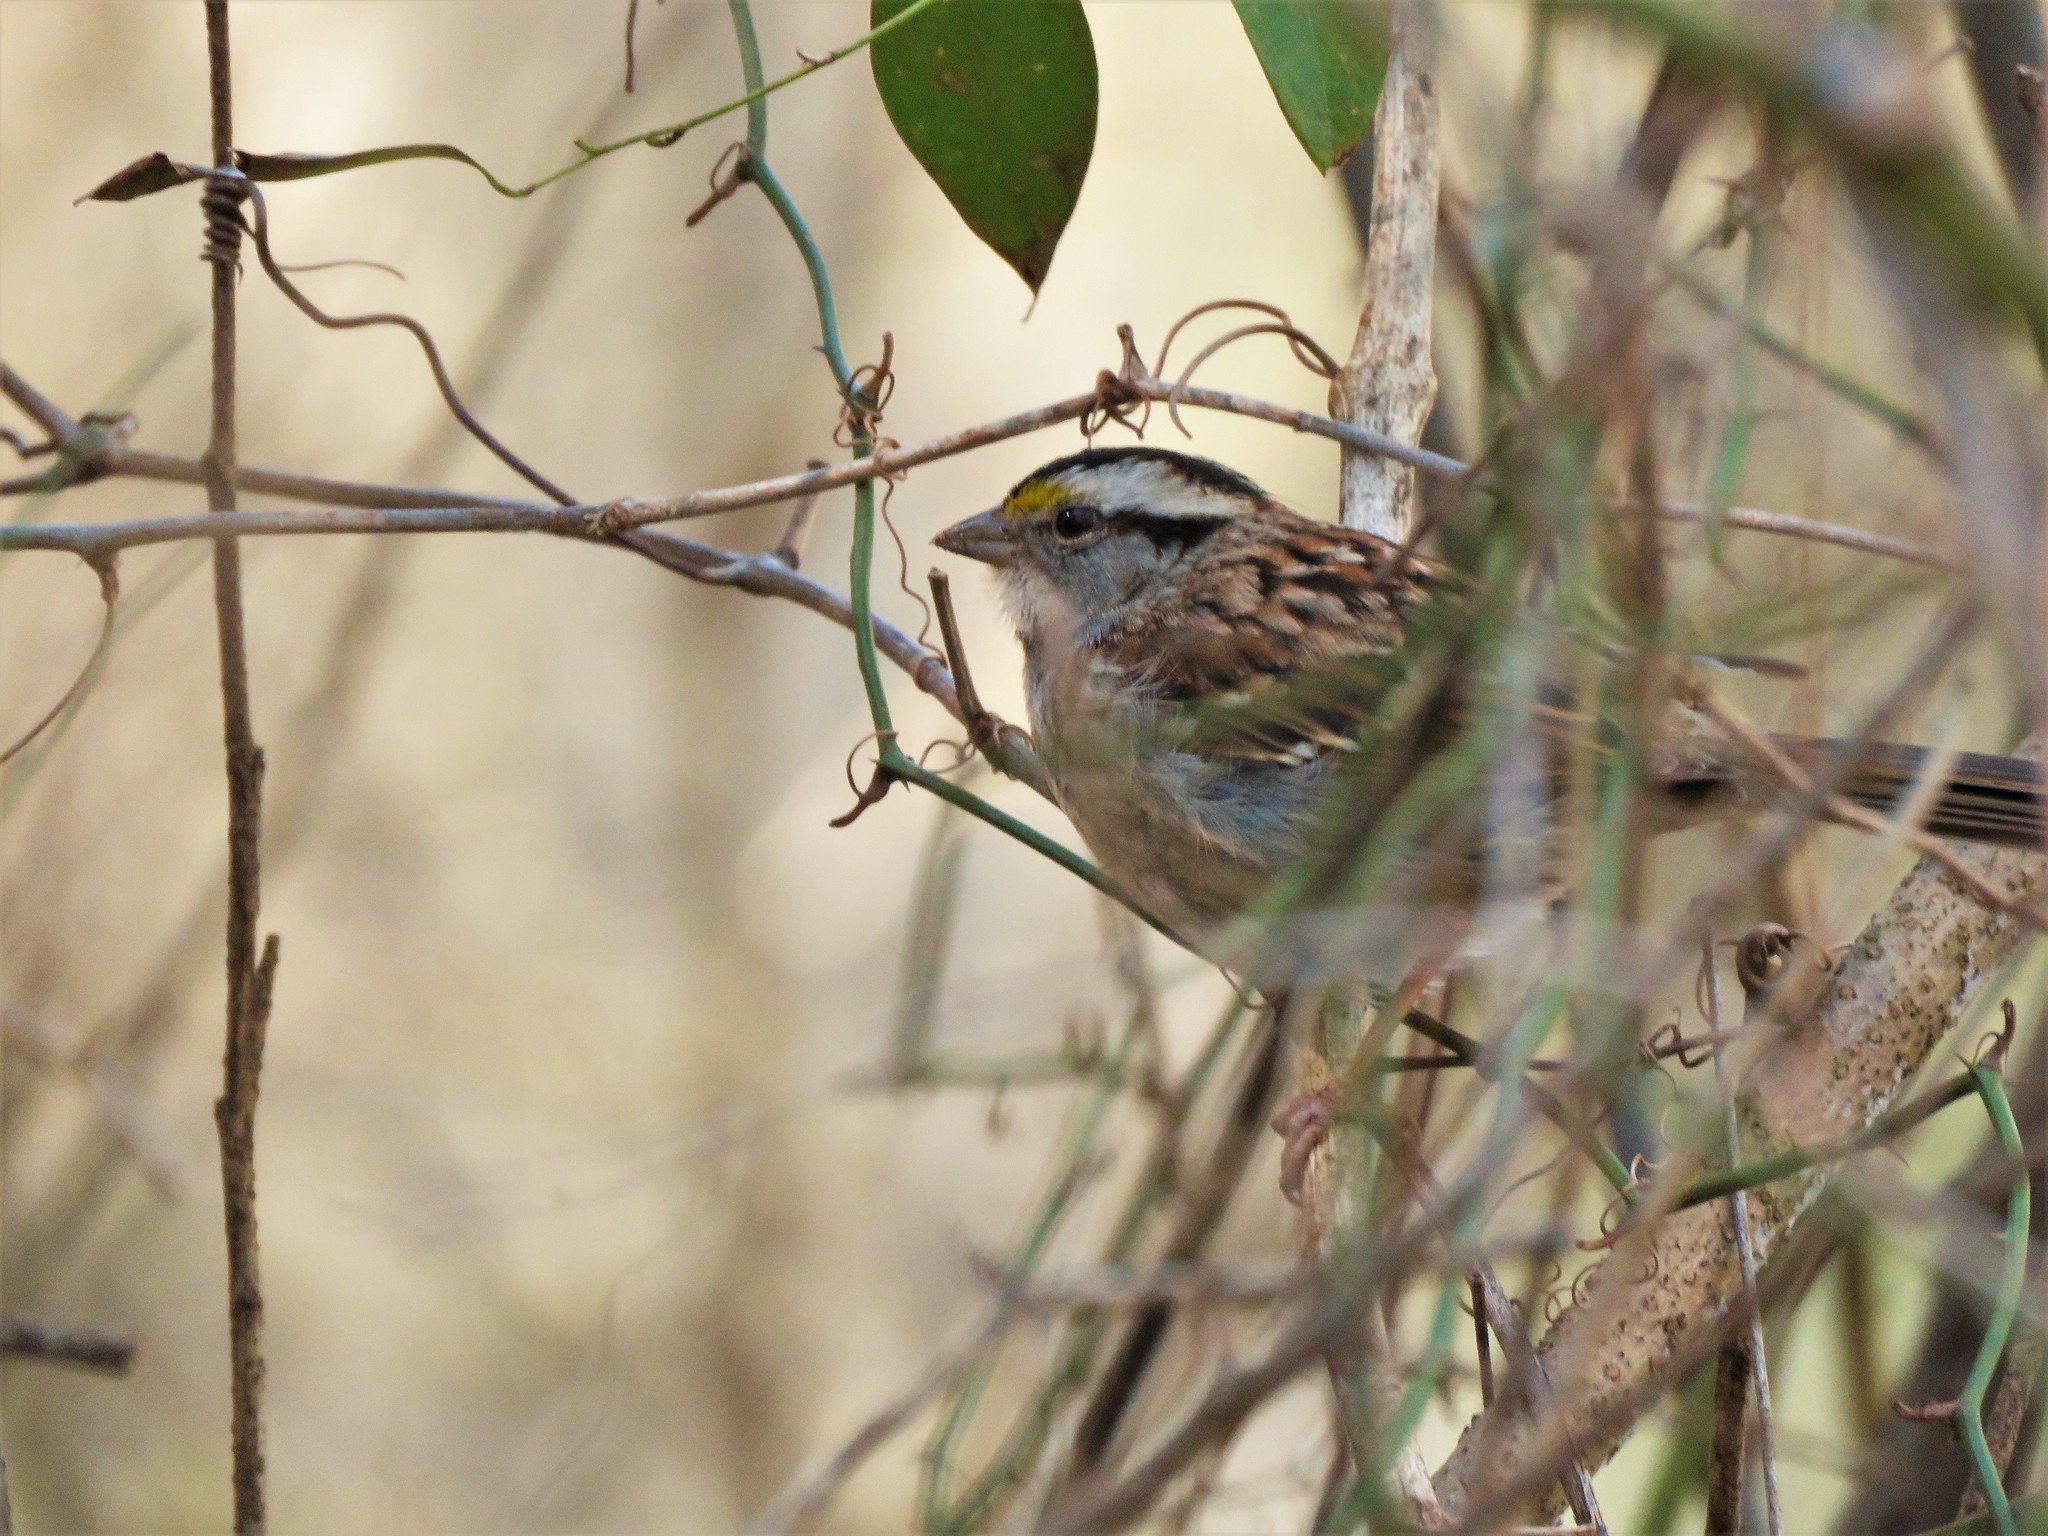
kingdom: Animalia
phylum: Chordata
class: Aves
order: Passeriformes
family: Passerellidae
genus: Zonotrichia
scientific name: Zonotrichia albicollis
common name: White-throated sparrow
